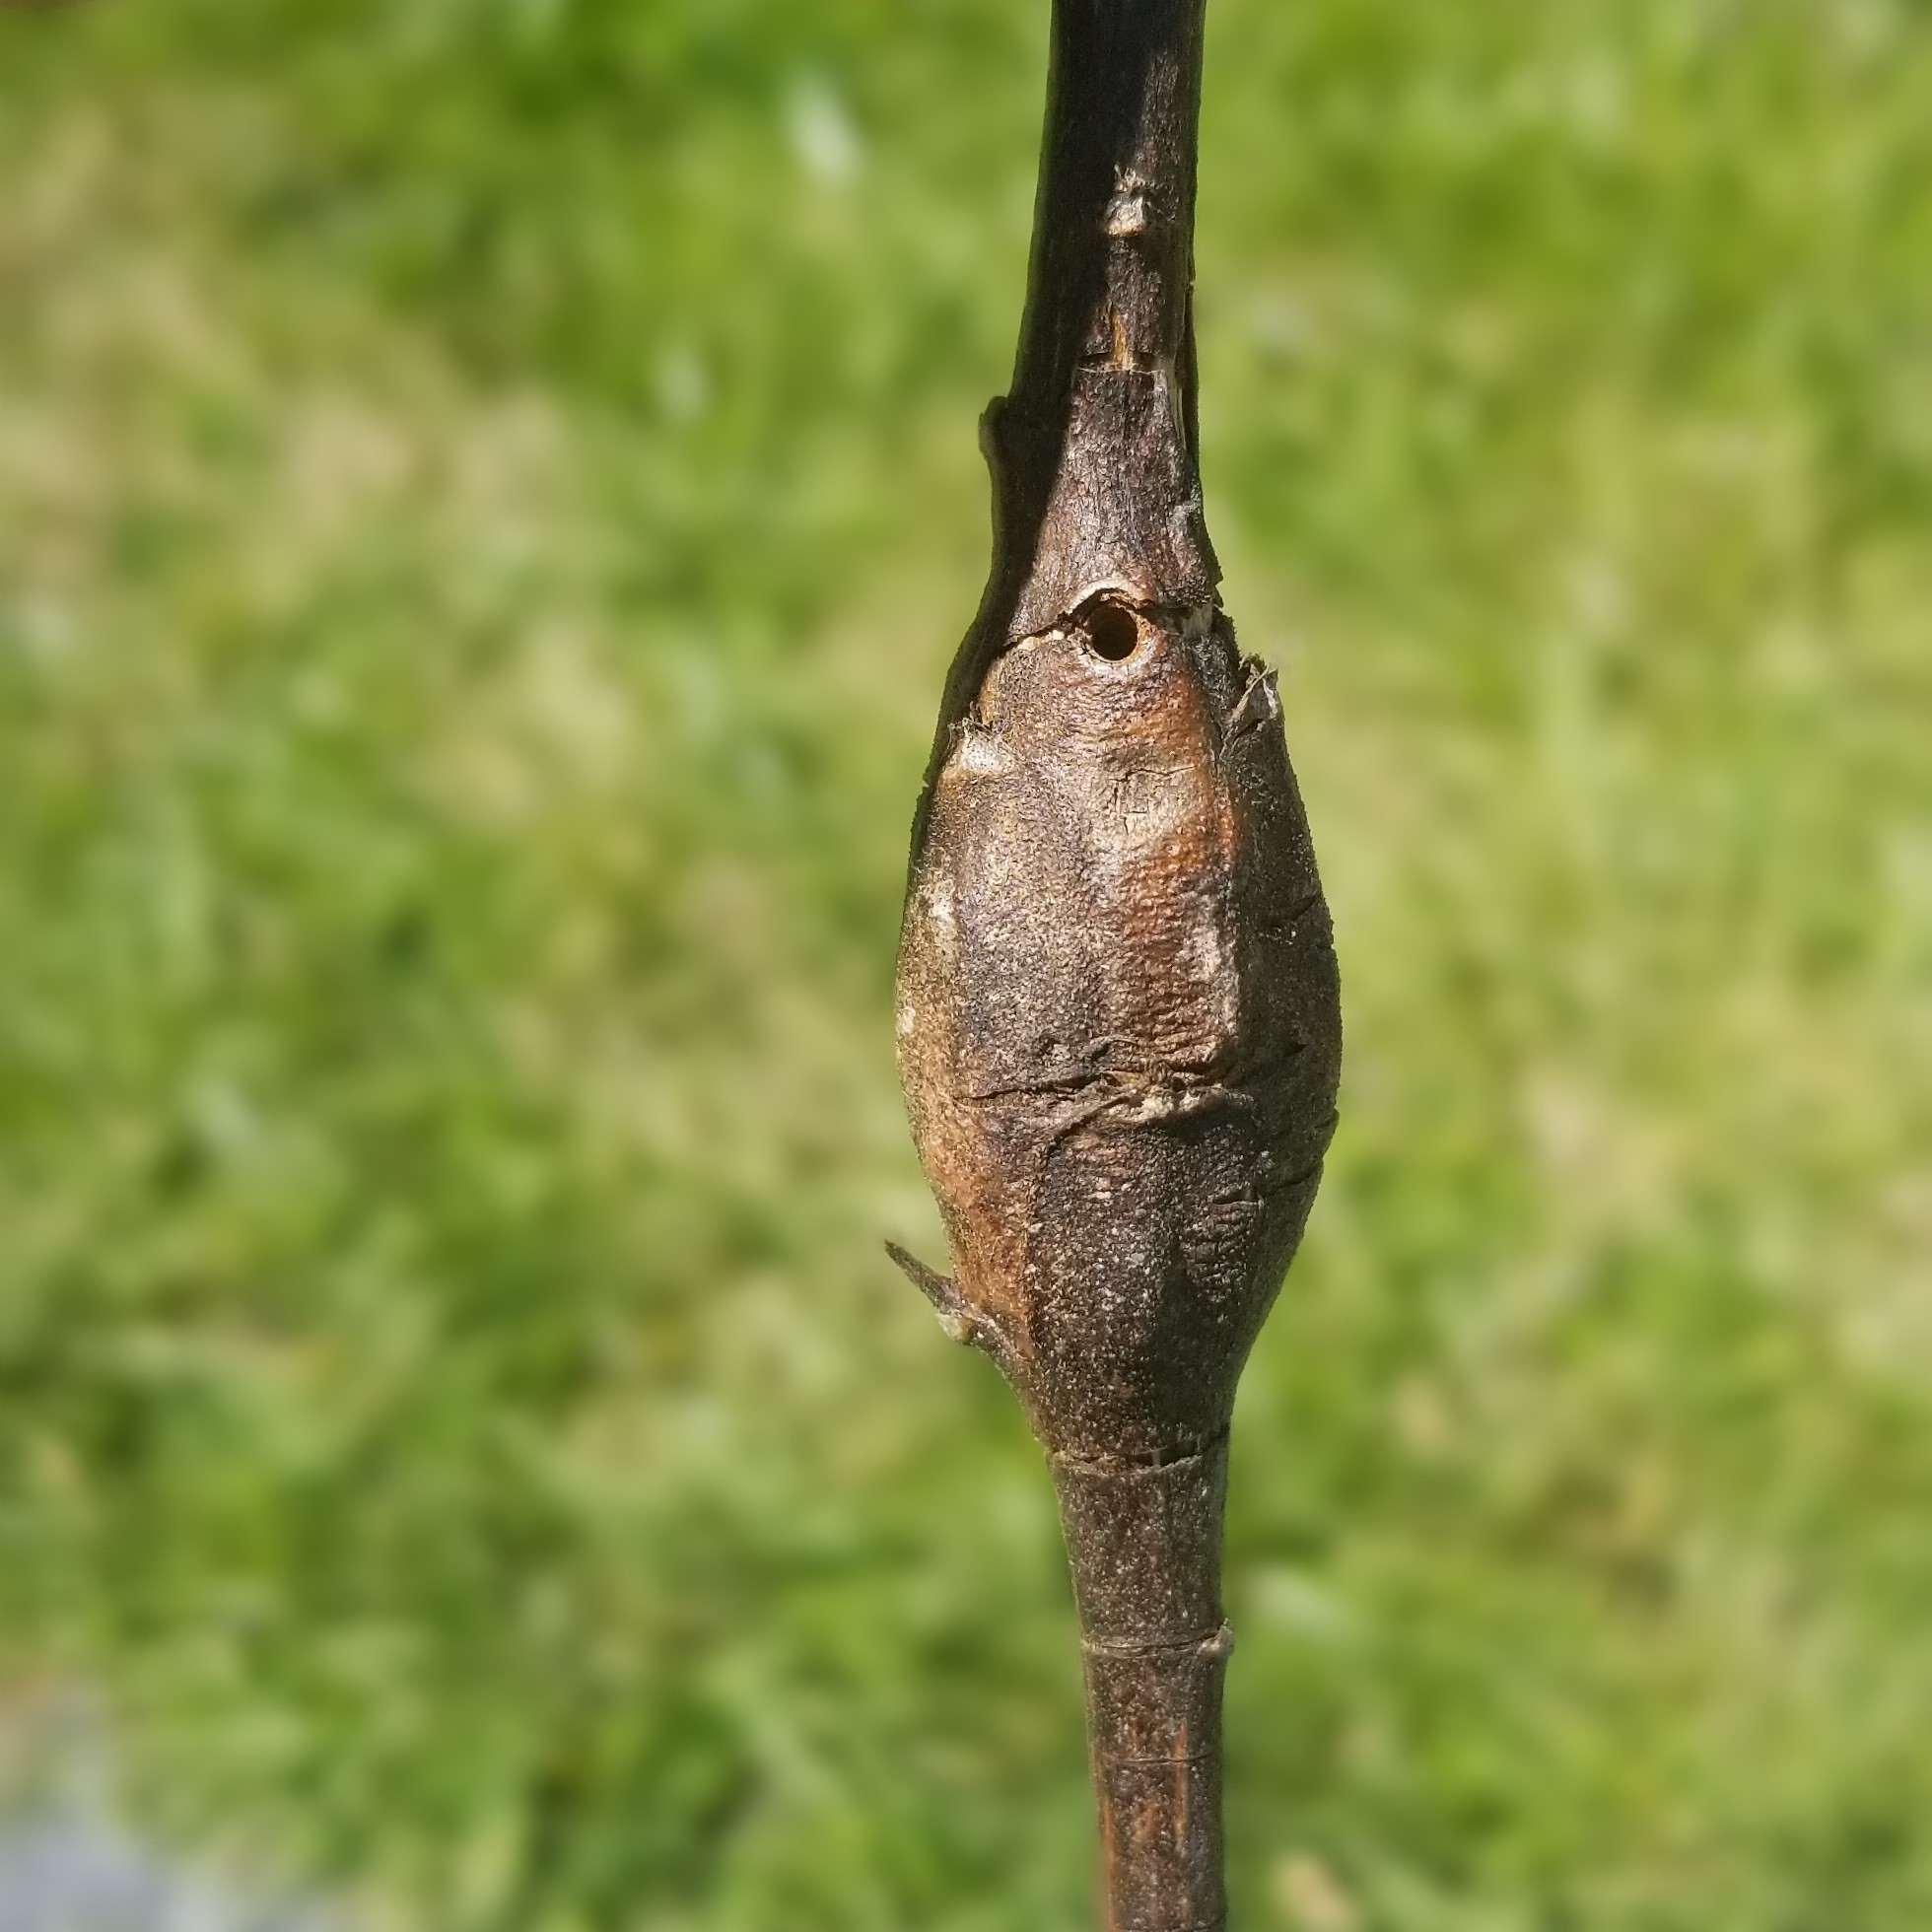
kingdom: Animalia
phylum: Arthropoda
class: Insecta
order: Lepidoptera
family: Gelechiidae
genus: Gnorimoschema
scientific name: Gnorimoschema gallaesolidaginis
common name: Goldenrod elliptical-gall moth
